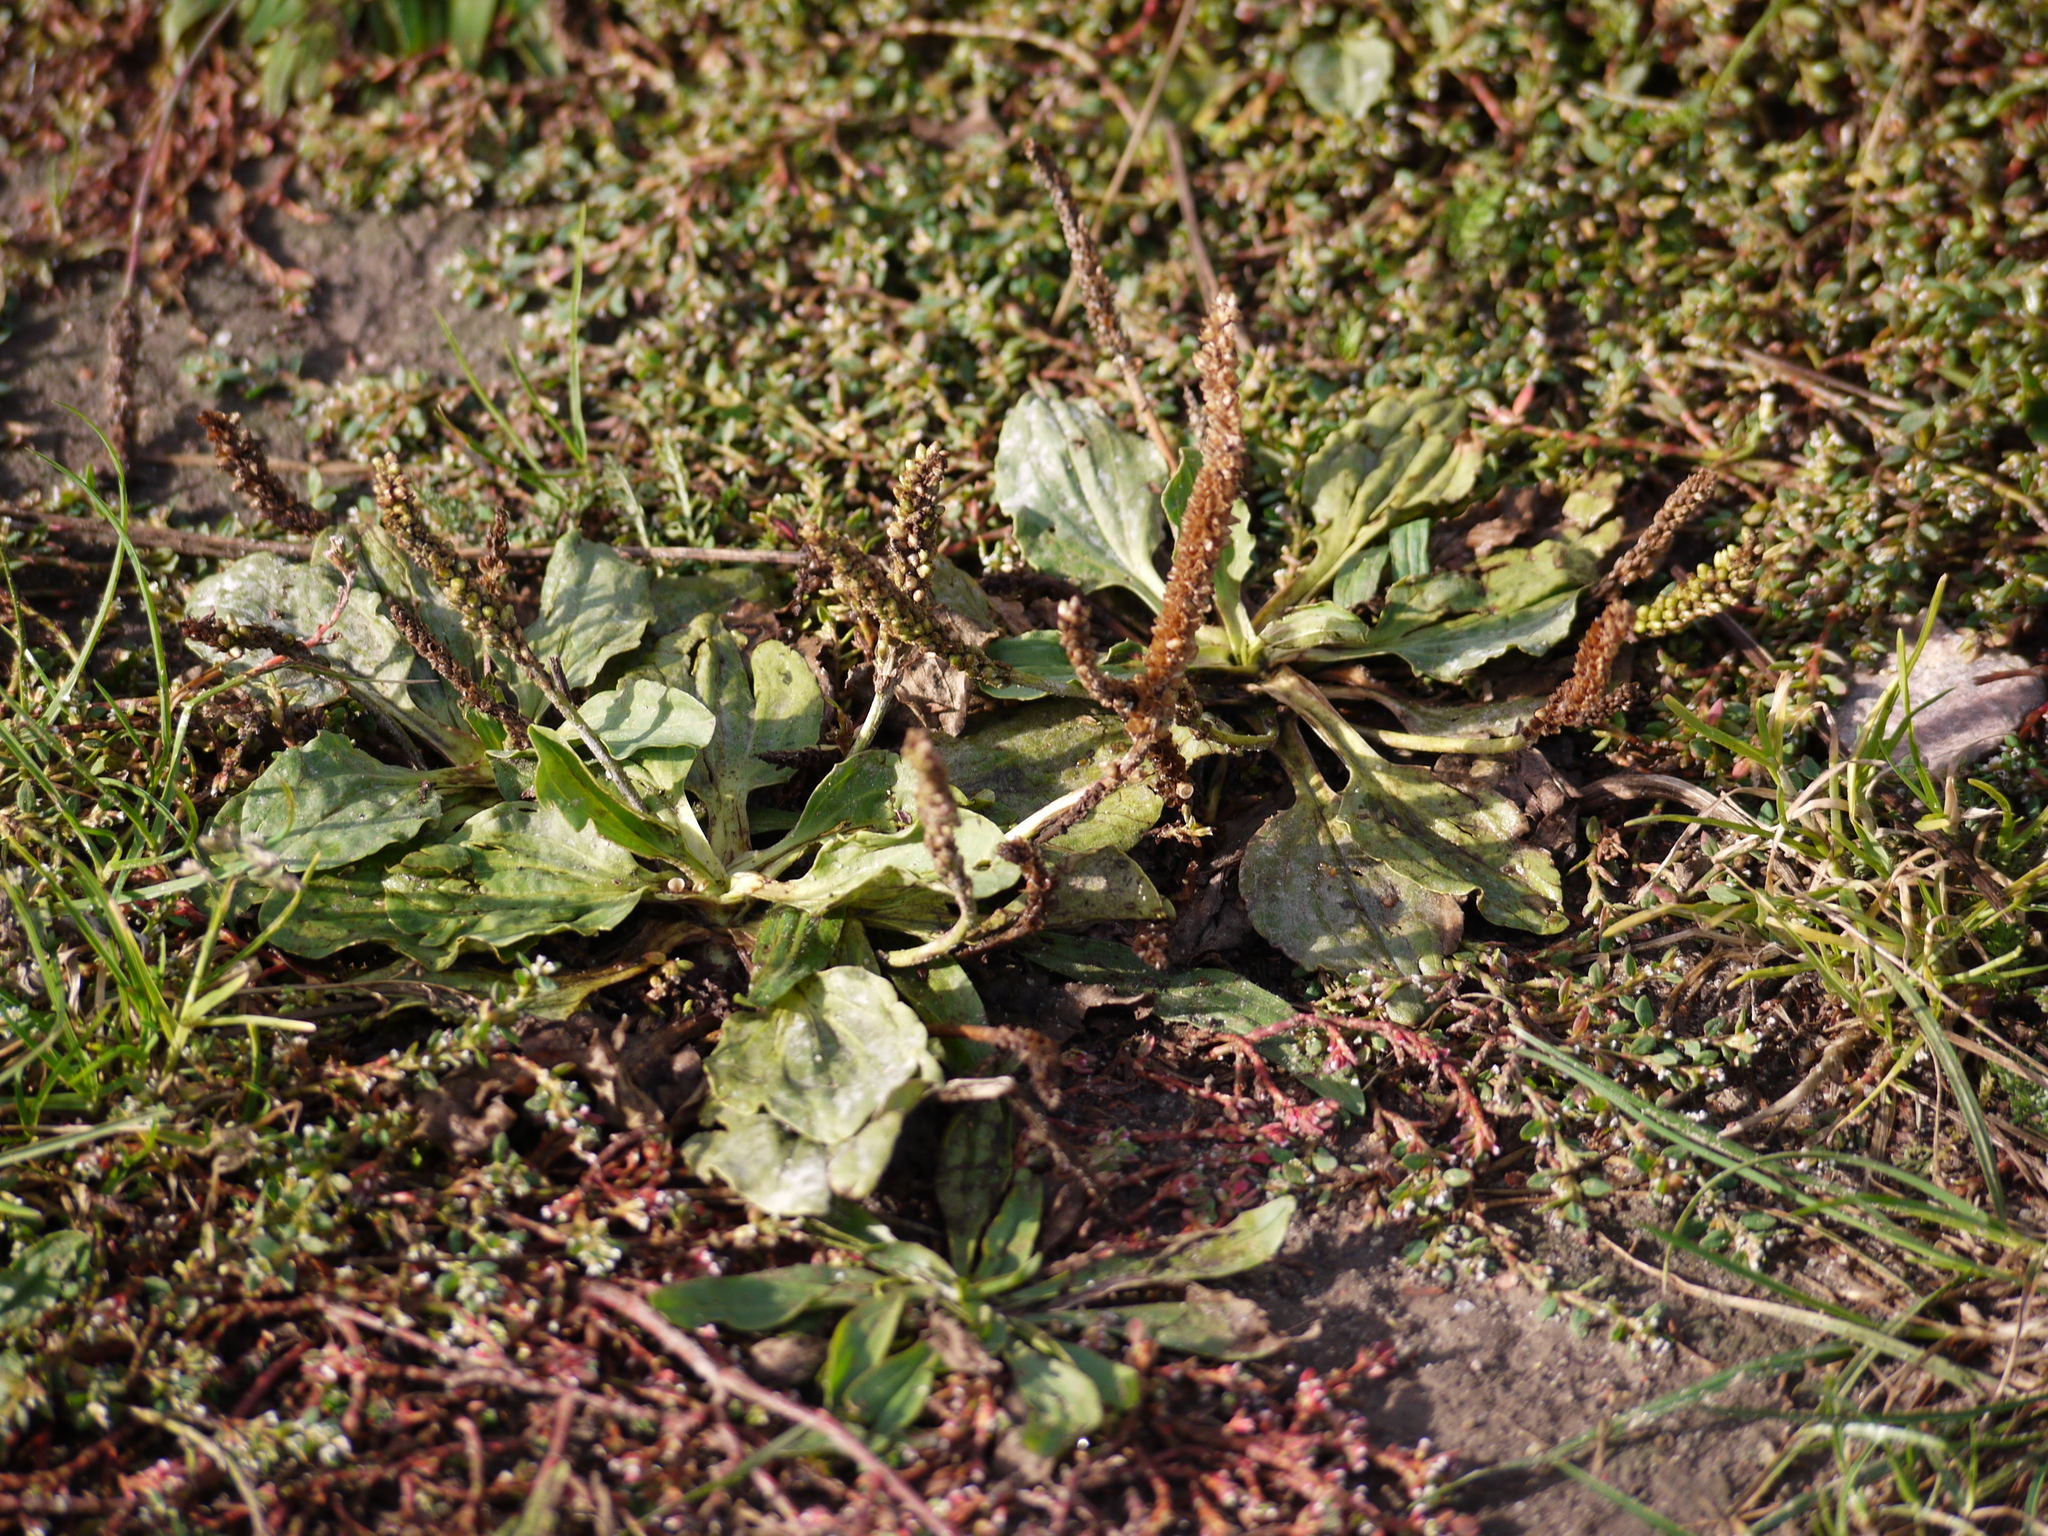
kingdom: Plantae
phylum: Tracheophyta
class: Magnoliopsida
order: Lamiales
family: Plantaginaceae
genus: Plantago
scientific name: Plantago major
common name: Common plantain
